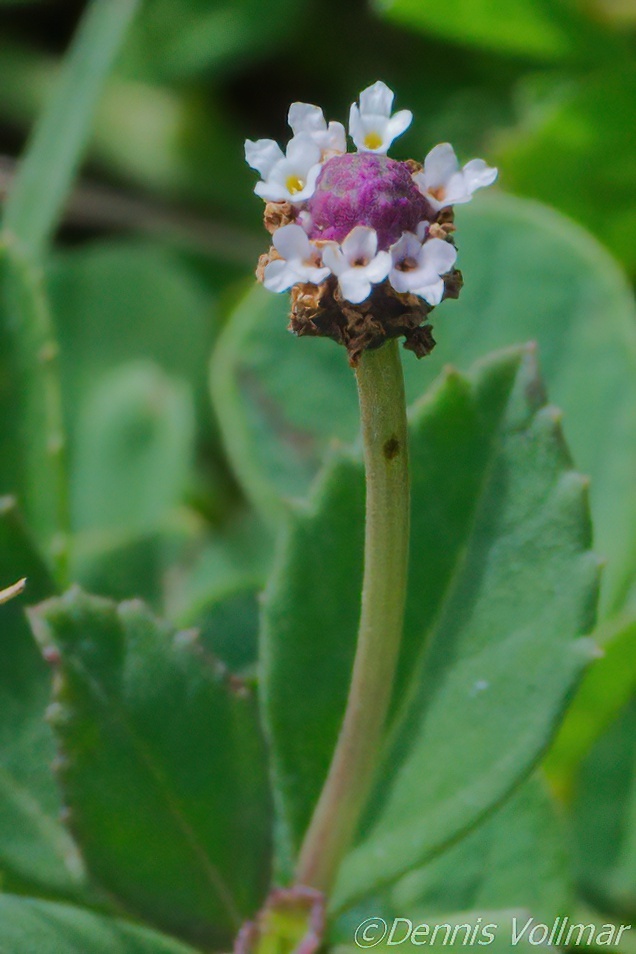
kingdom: Plantae
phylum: Tracheophyta
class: Magnoliopsida
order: Lamiales
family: Verbenaceae
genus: Phyla
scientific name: Phyla nodiflora
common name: Frogfruit
